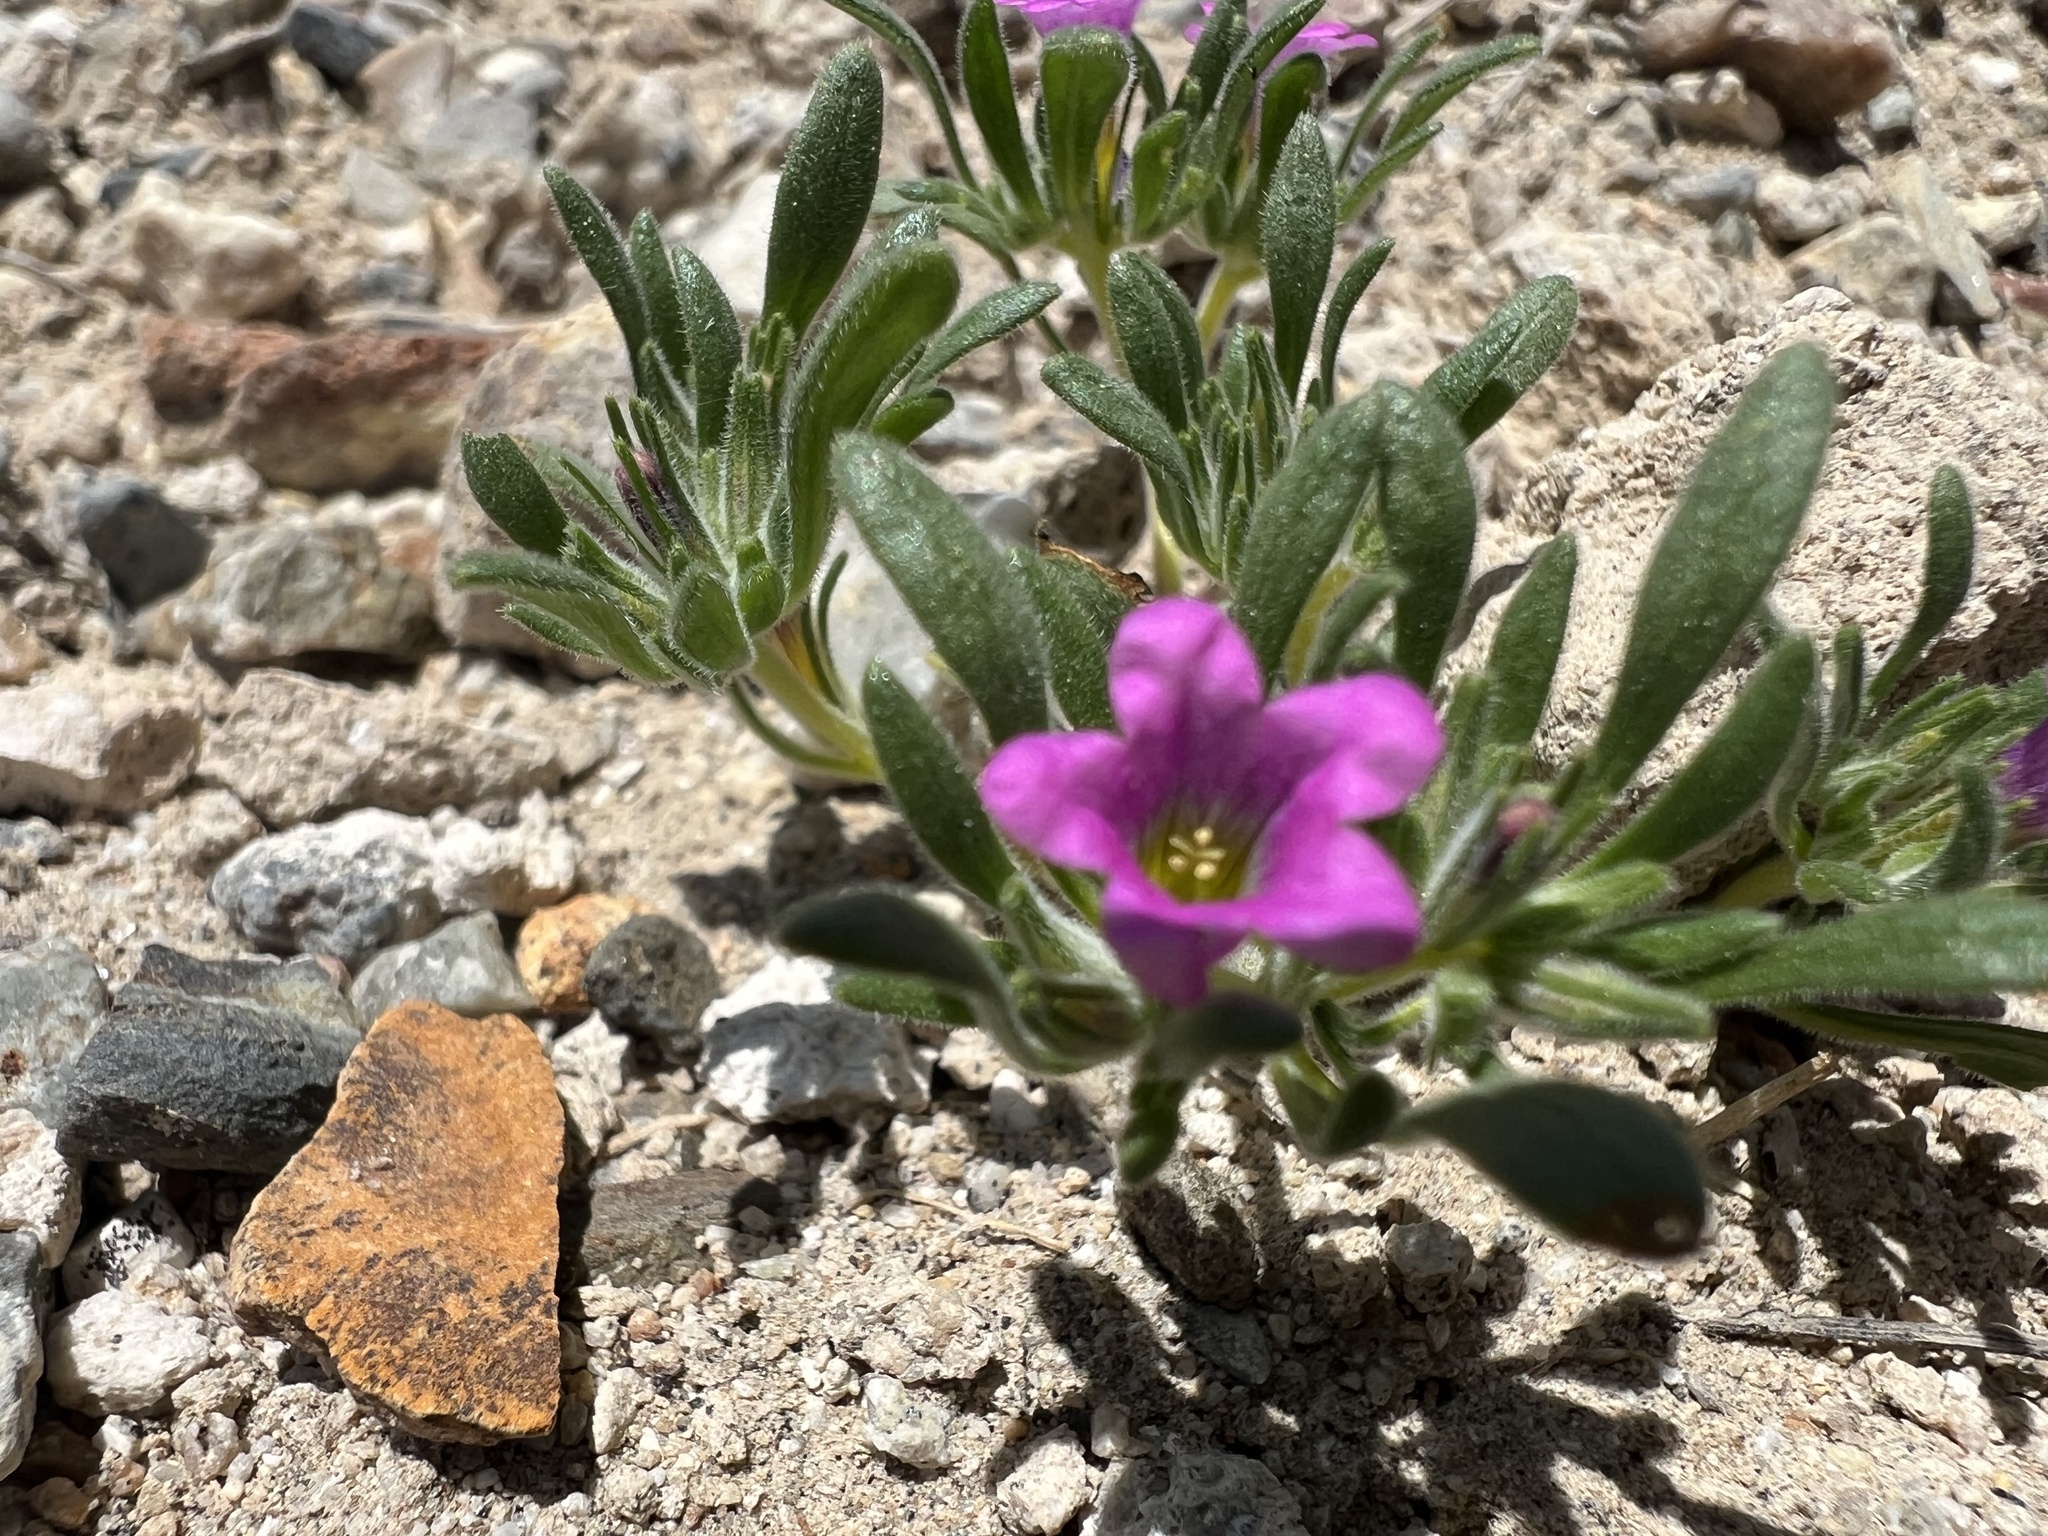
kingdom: Plantae
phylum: Tracheophyta
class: Magnoliopsida
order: Boraginales
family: Namaceae
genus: Nama
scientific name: Nama demissa
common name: Leafy nama
